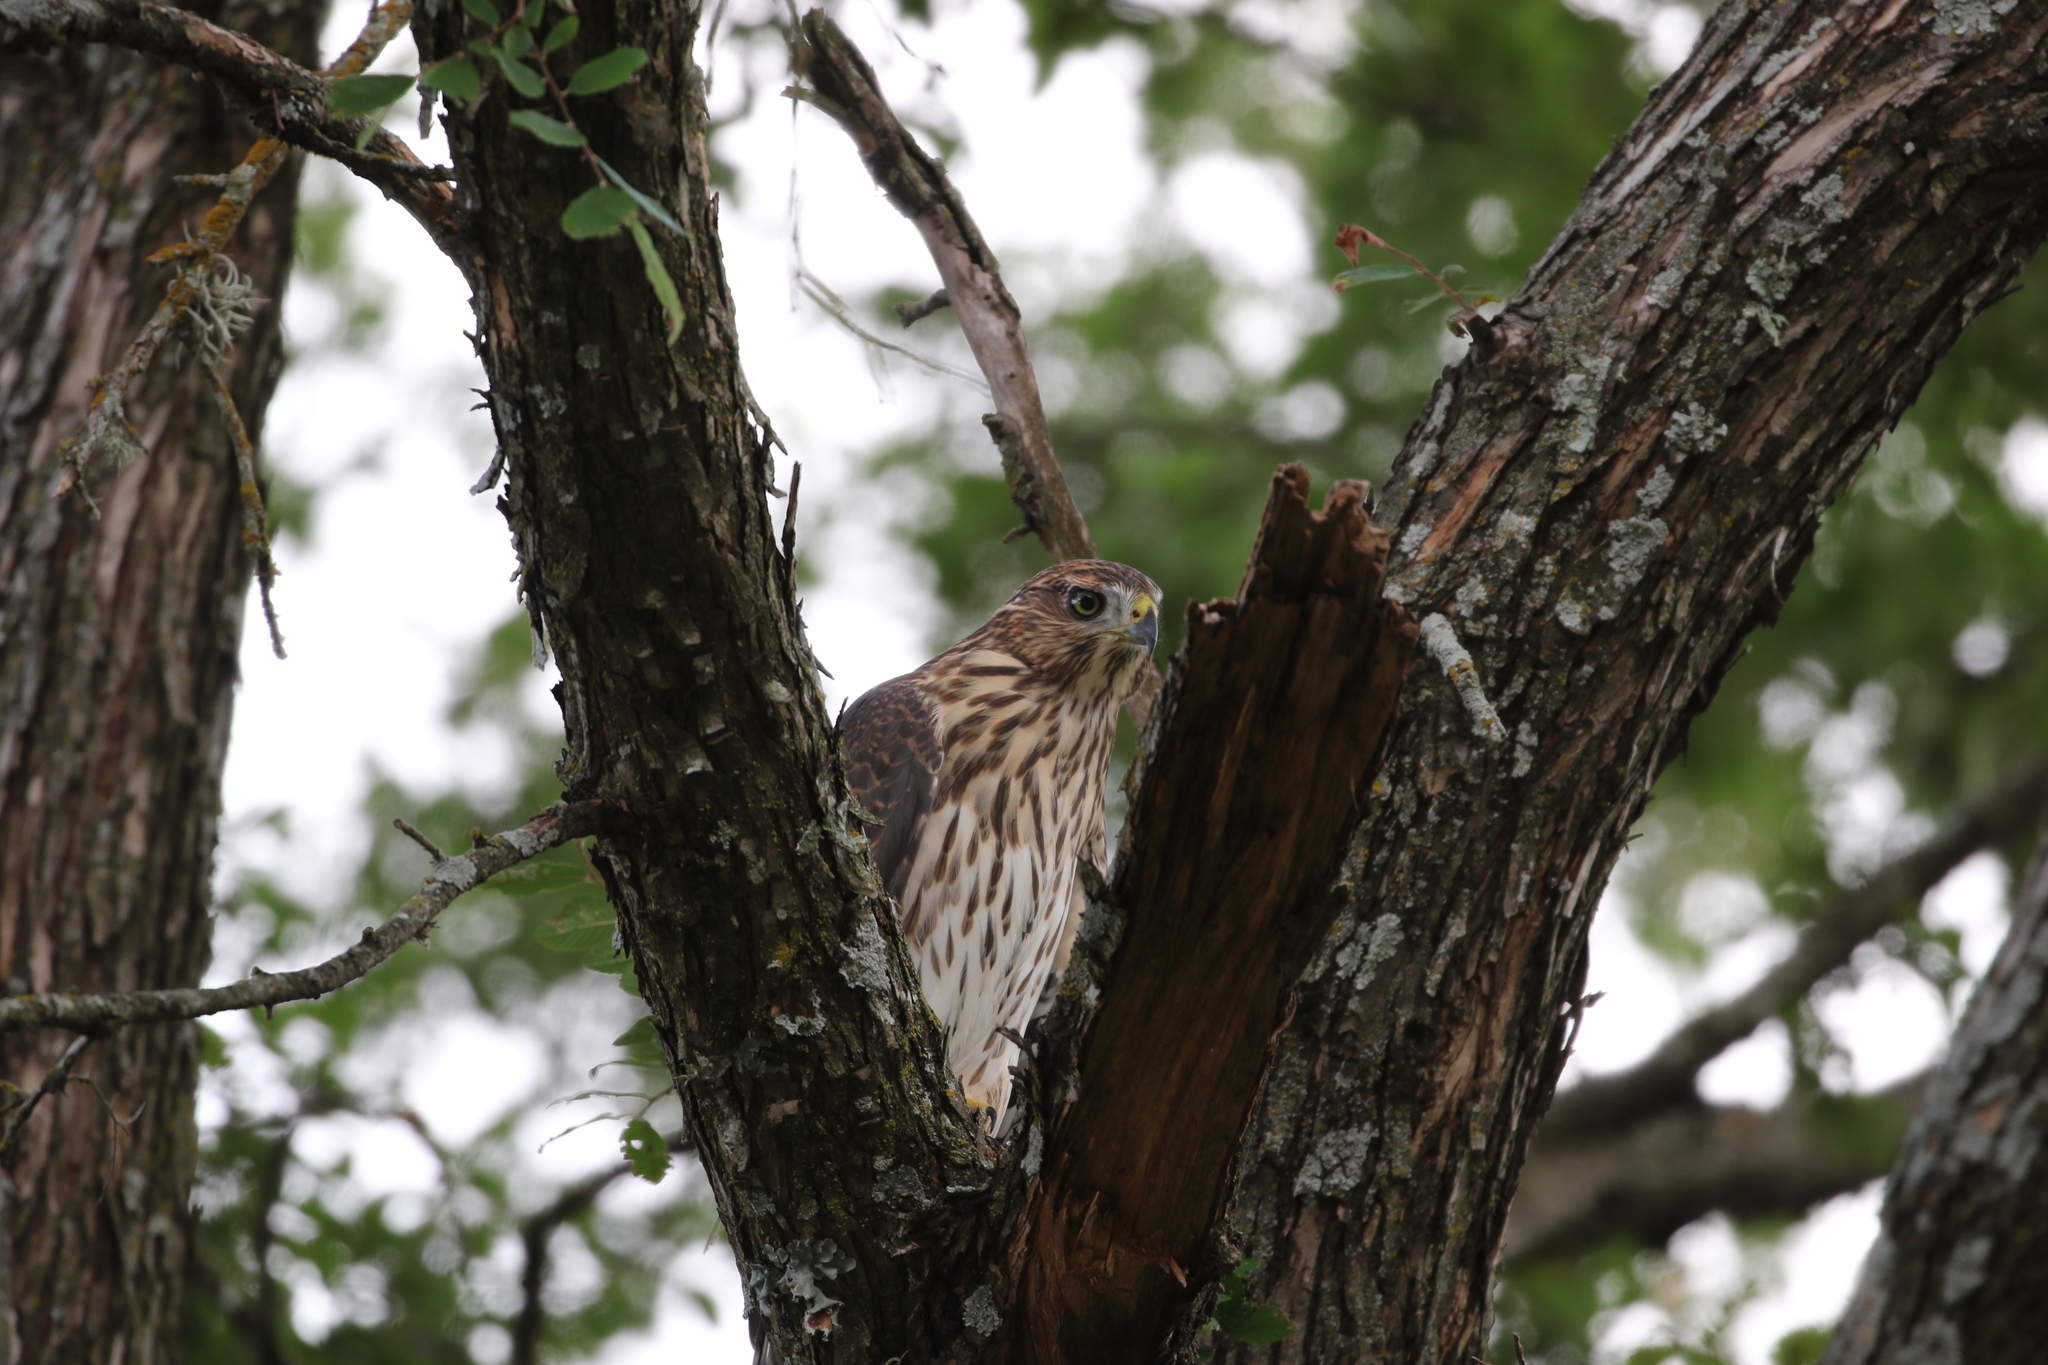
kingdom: Animalia
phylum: Chordata
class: Aves
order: Accipitriformes
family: Accipitridae
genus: Accipiter
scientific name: Accipiter cooperii
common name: Cooper's hawk
